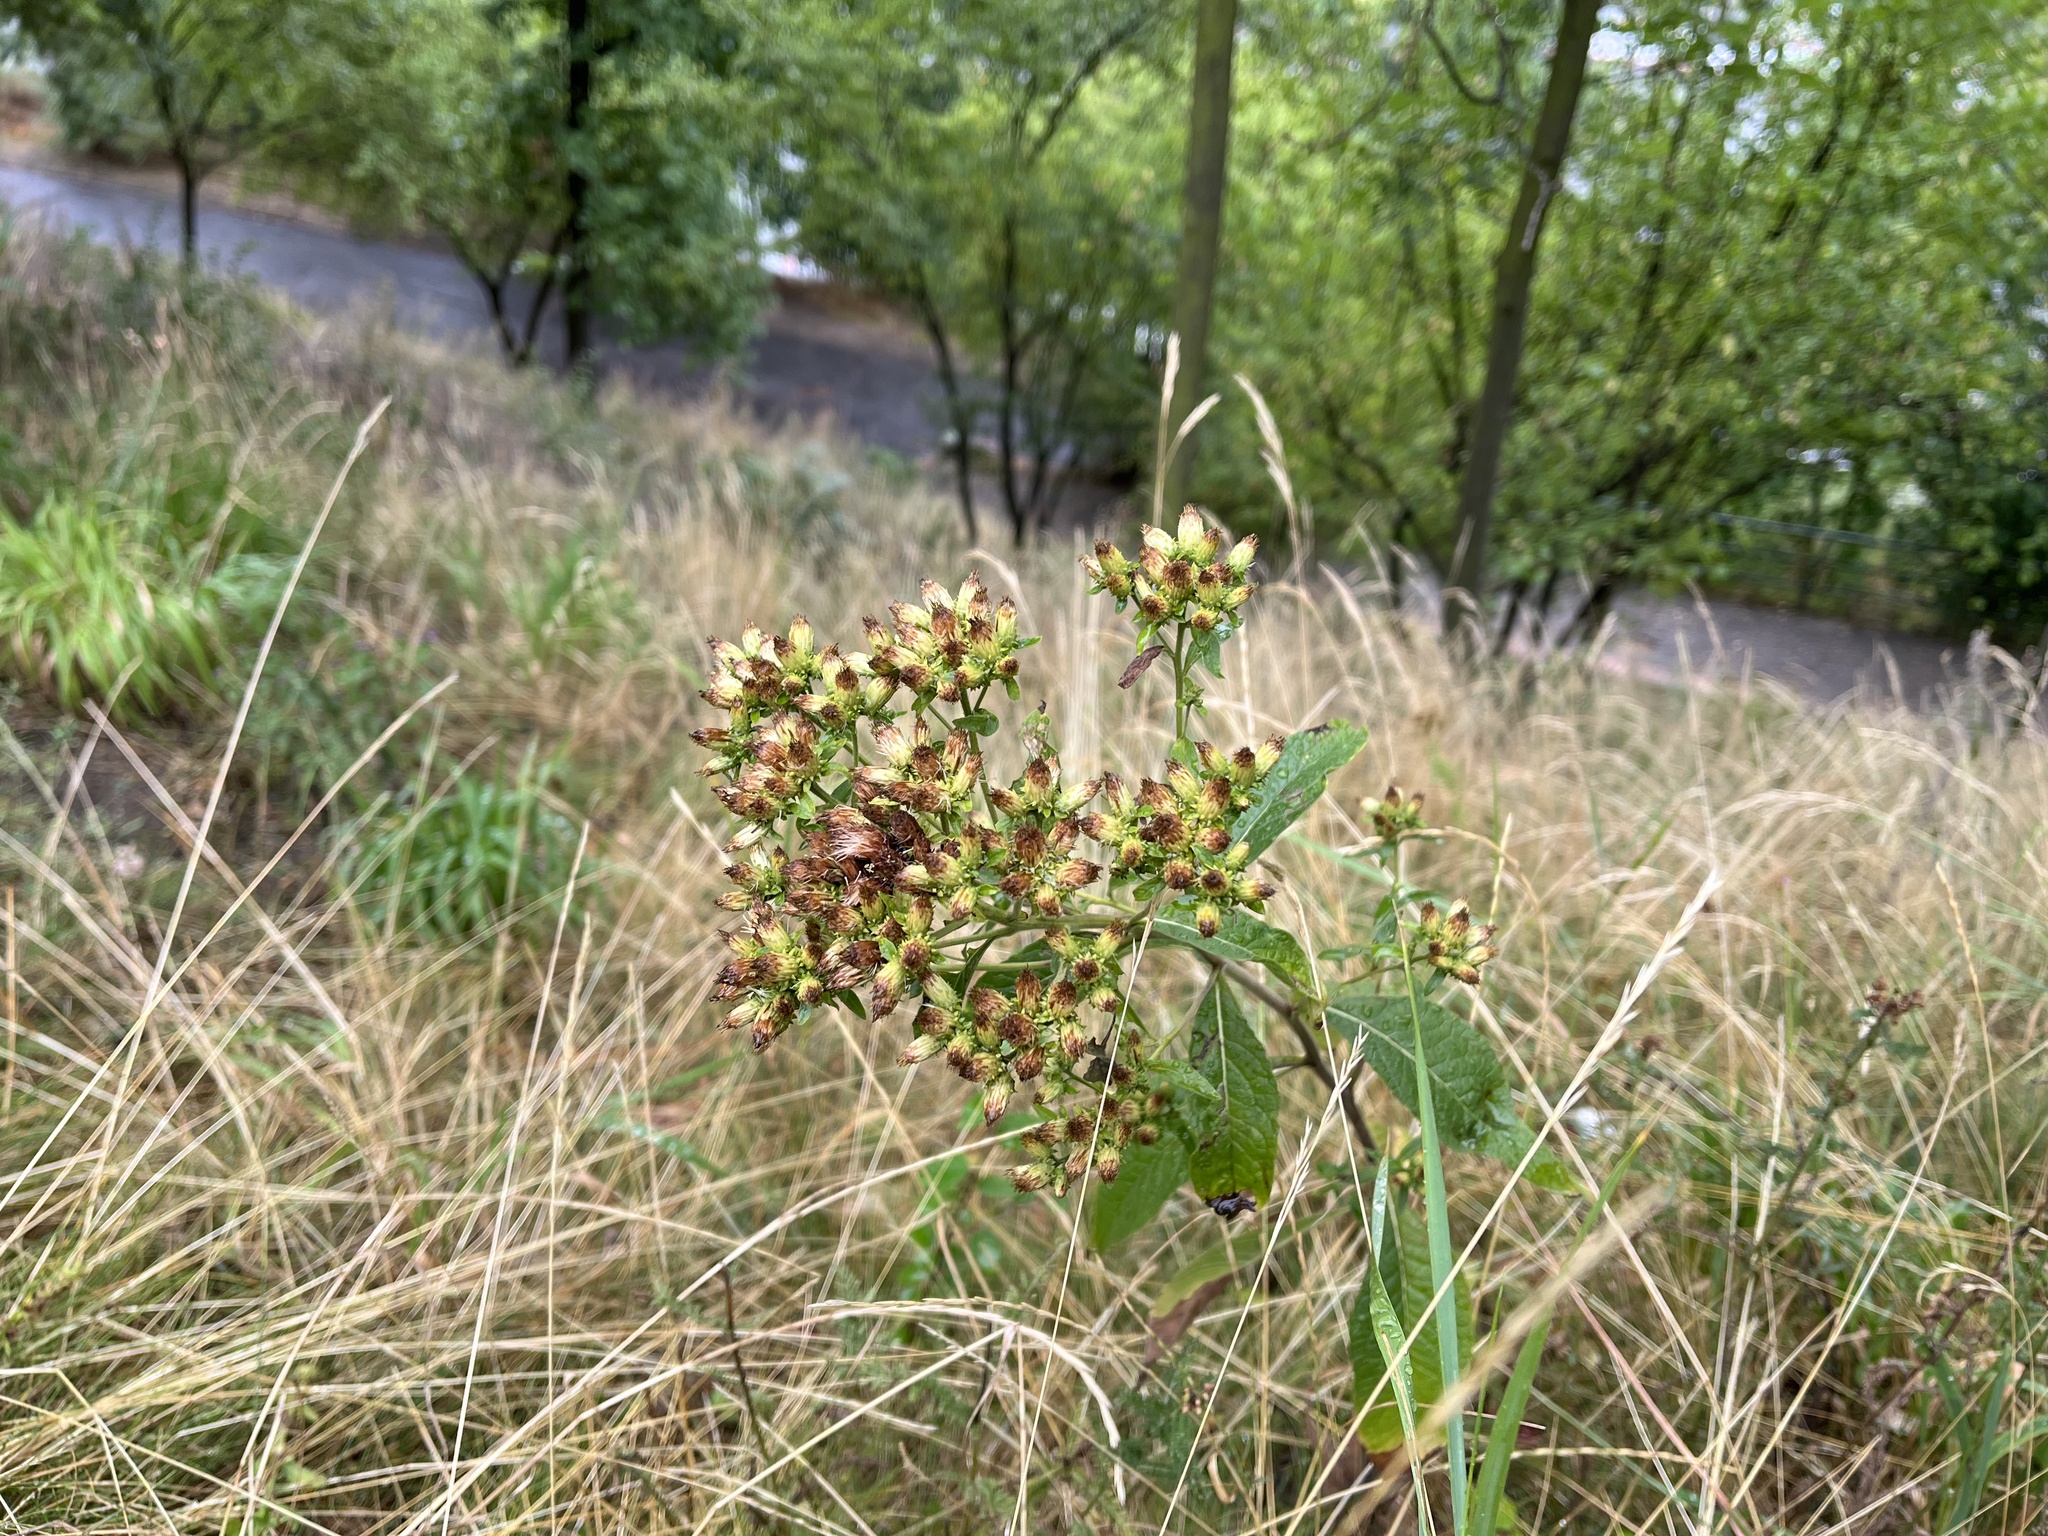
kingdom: Plantae
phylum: Tracheophyta
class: Magnoliopsida
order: Asterales
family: Asteraceae
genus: Pentanema
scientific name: Pentanema squarrosum
